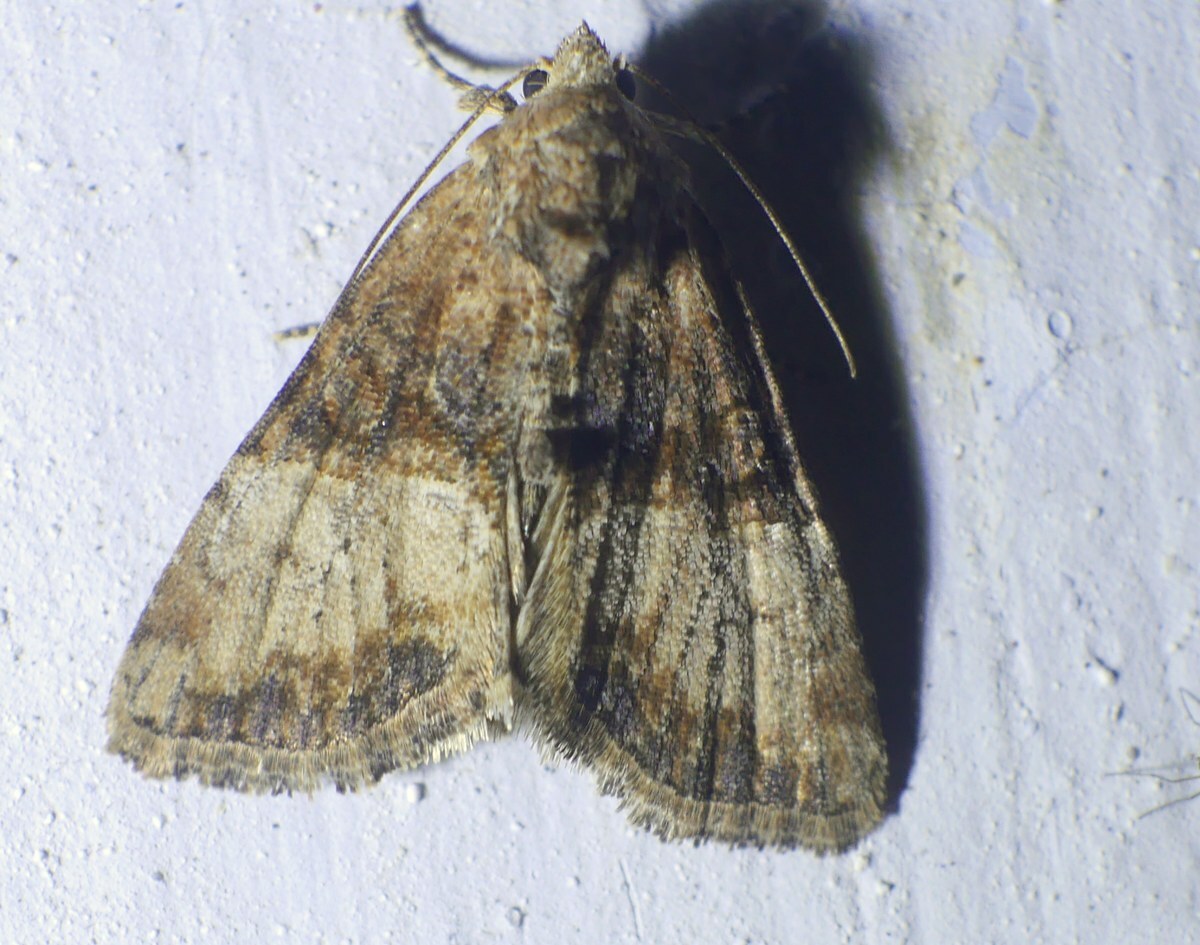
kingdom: Animalia
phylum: Arthropoda
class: Insecta
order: Lepidoptera
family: Noctuidae
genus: Mesoligia
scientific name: Mesoligia furuncula
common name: Cloaked minor
